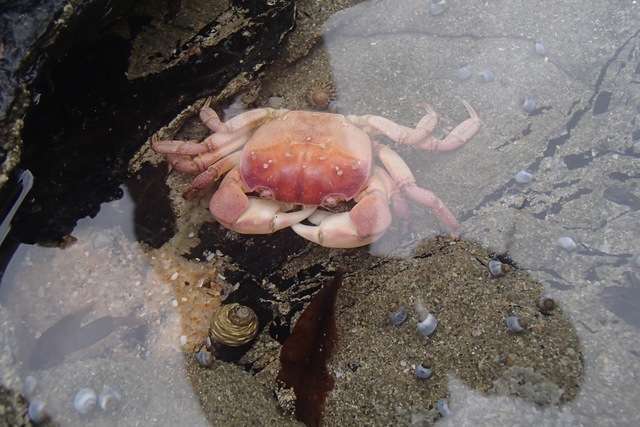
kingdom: Animalia
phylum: Arthropoda
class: Malacostraca
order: Decapoda
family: Varunidae
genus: Cyclograpsus
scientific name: Cyclograpsus granulosus
